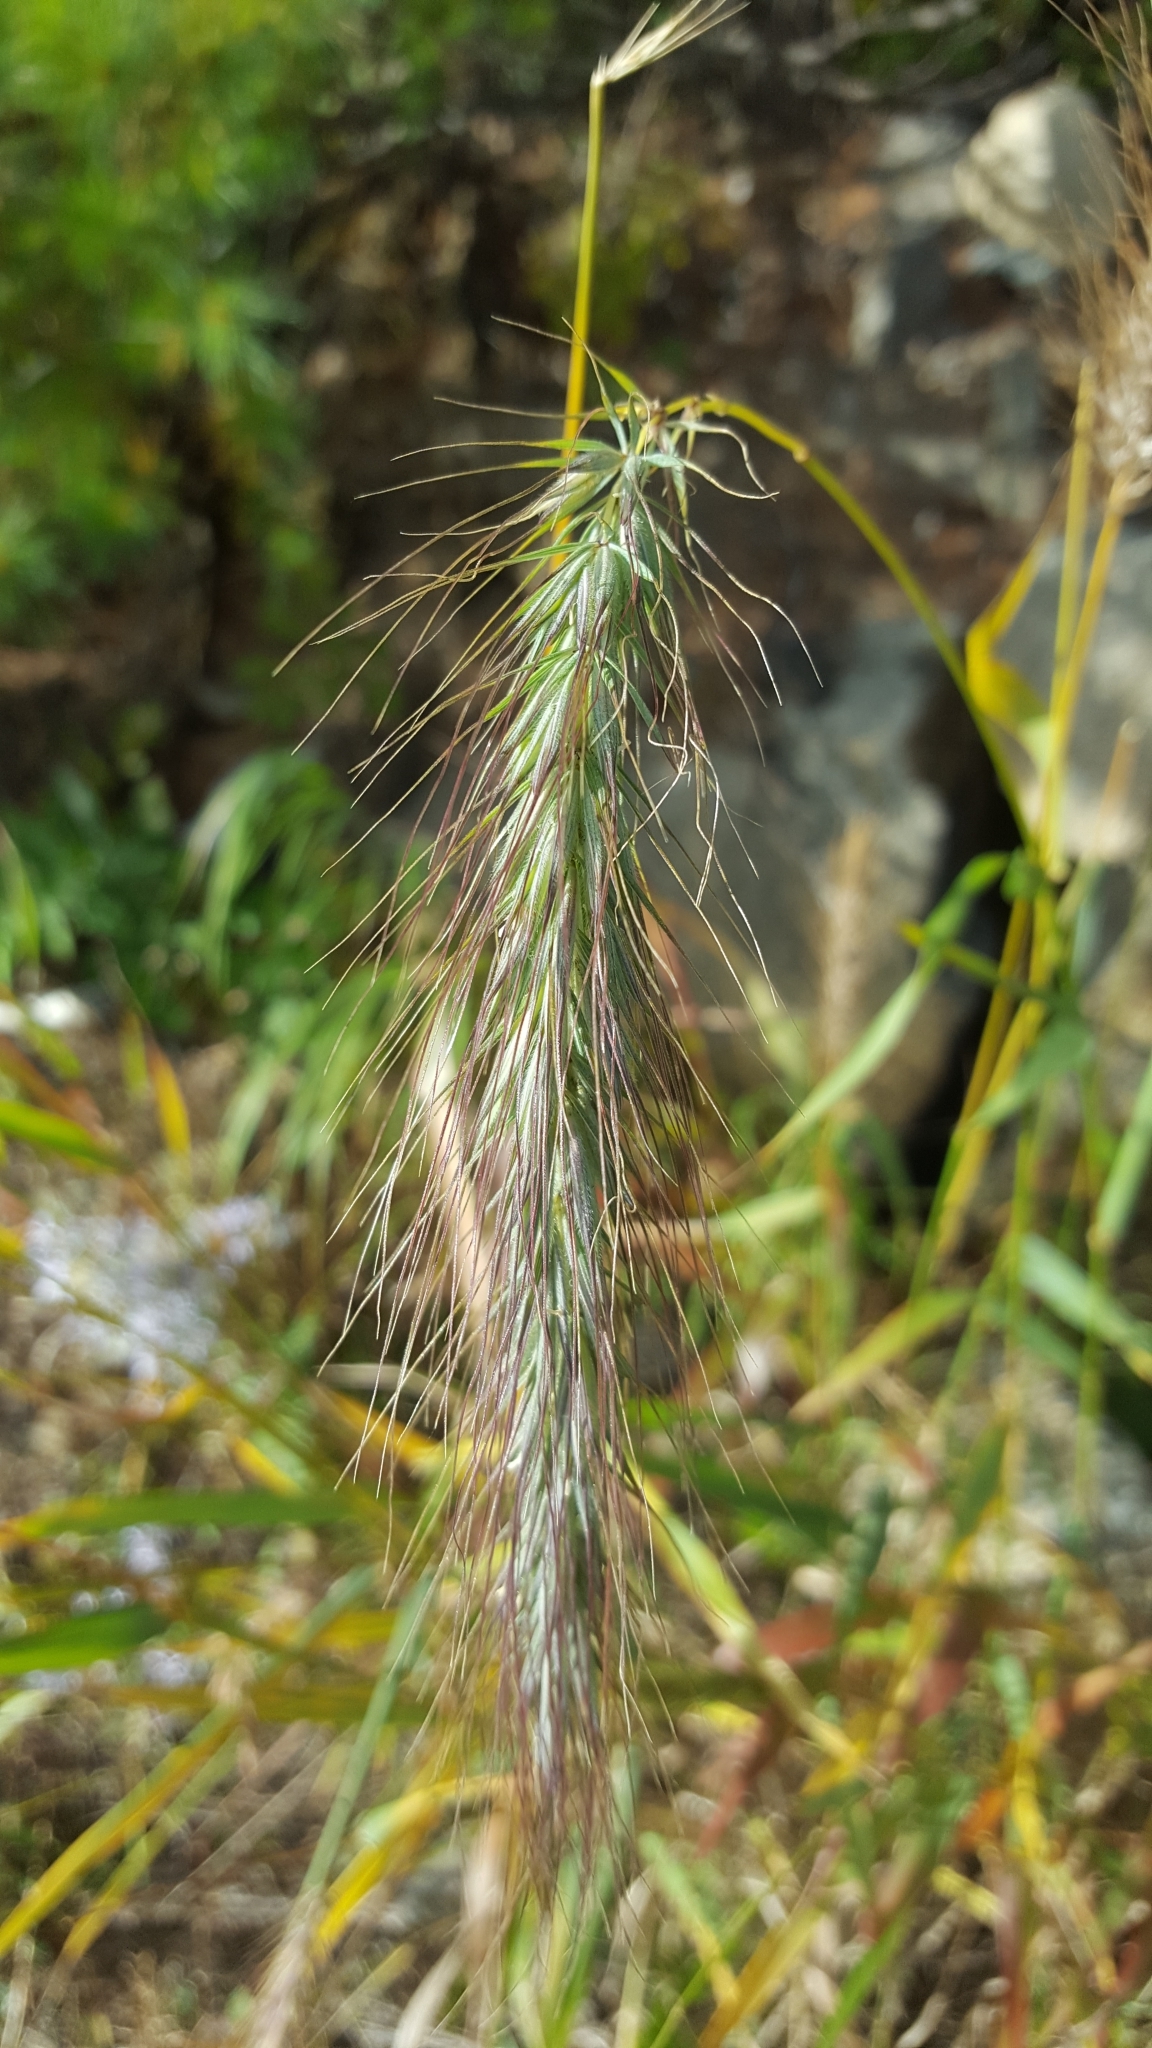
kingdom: Plantae
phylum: Tracheophyta
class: Liliopsida
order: Poales
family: Poaceae
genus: Elymus
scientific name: Elymus canadensis
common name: Canada wild rye
